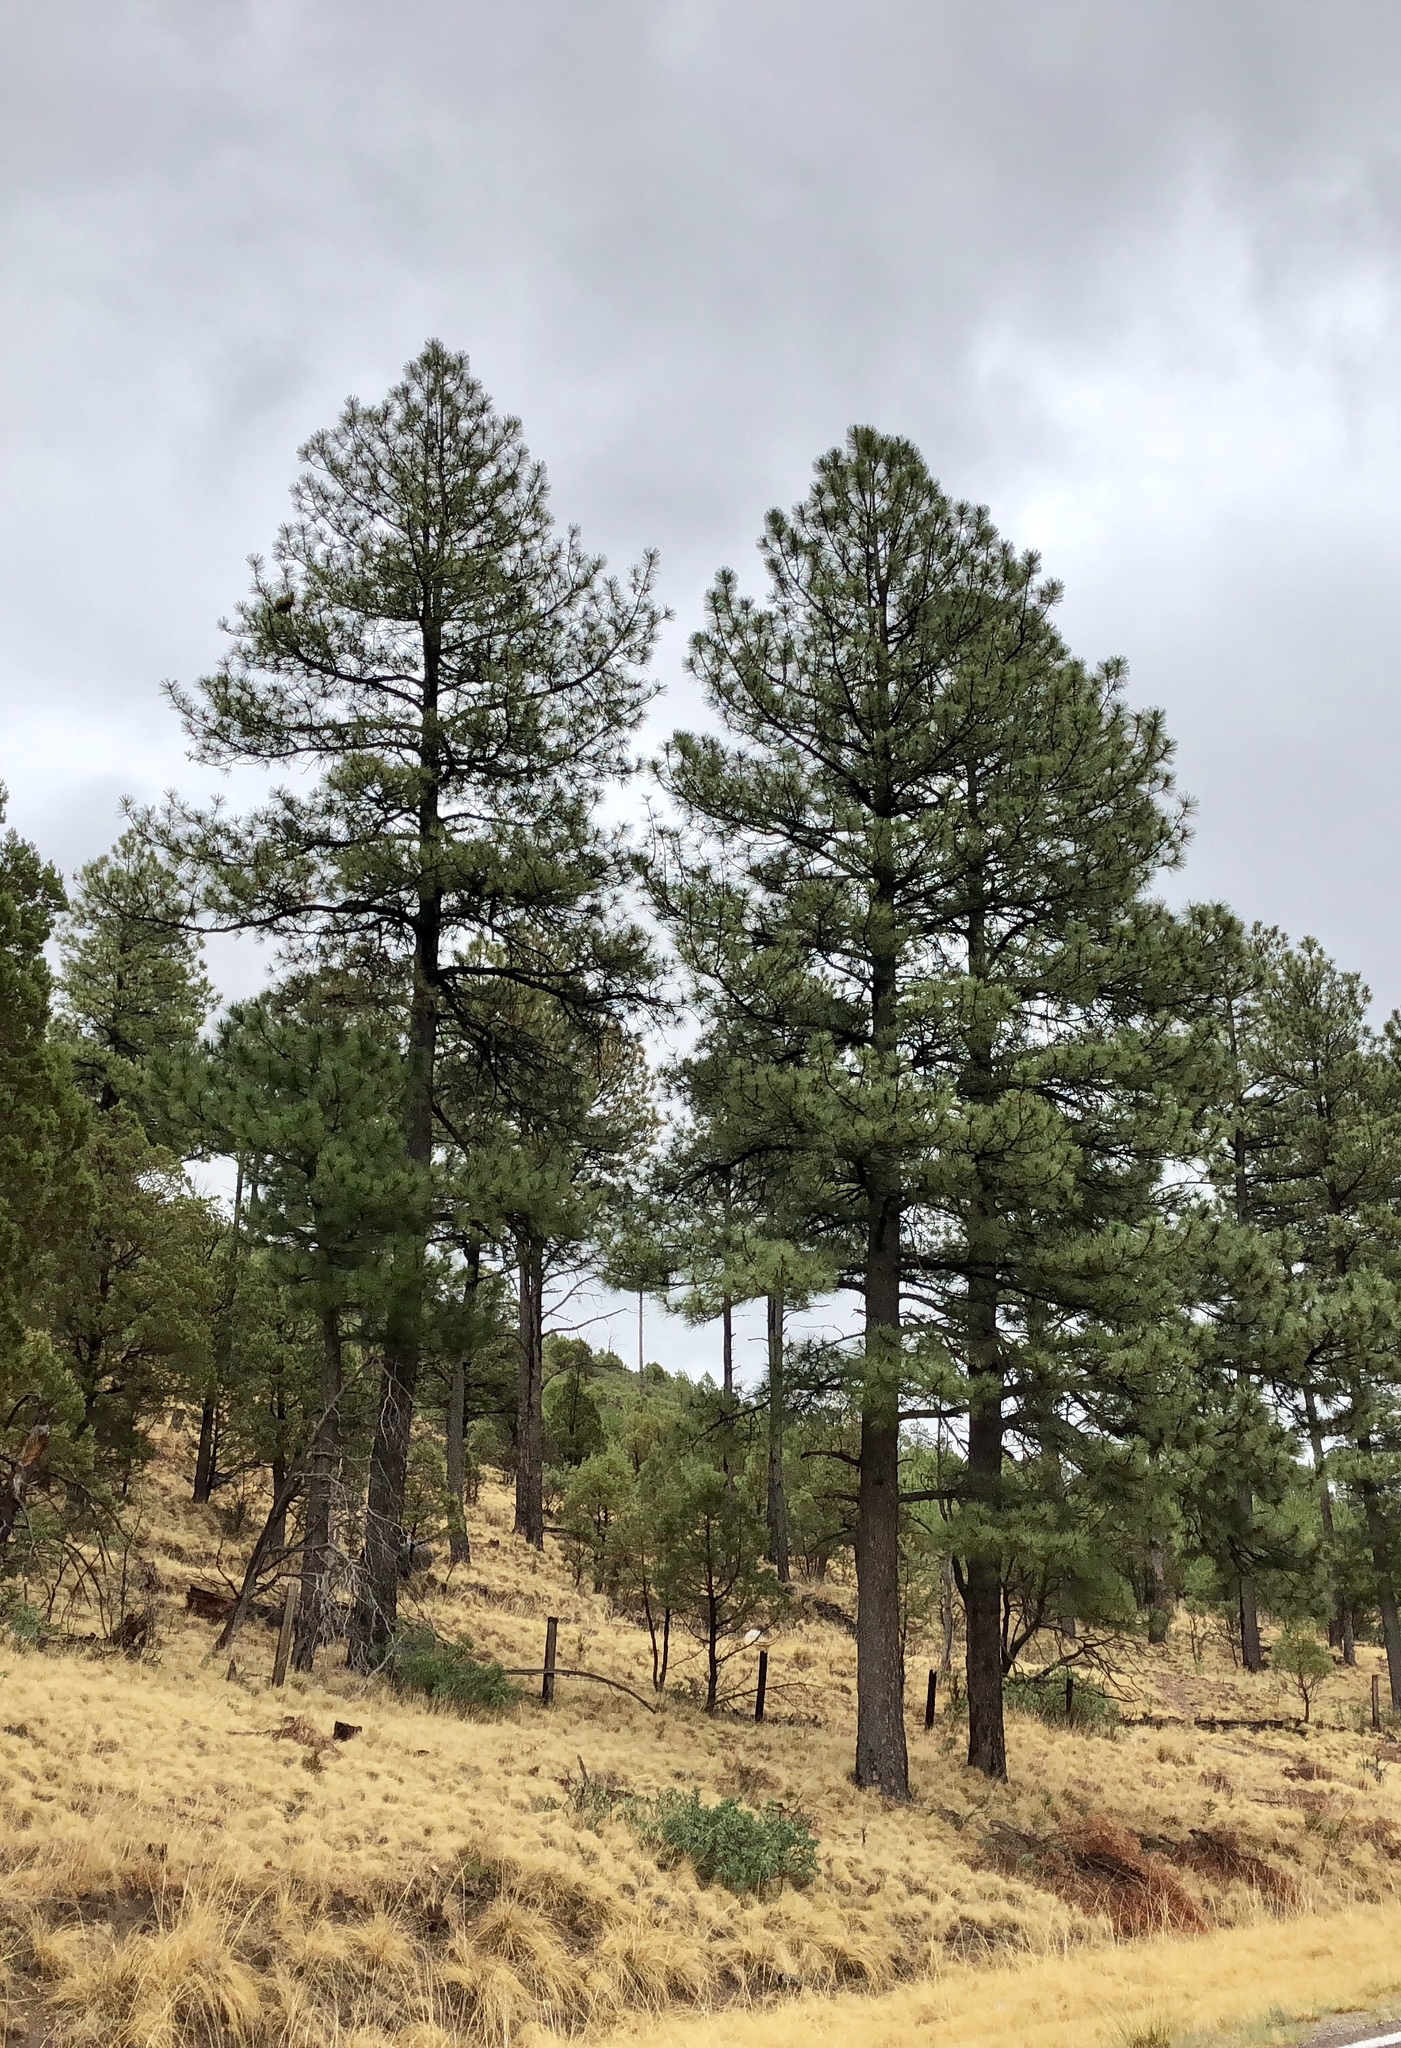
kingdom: Plantae
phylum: Tracheophyta
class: Pinopsida
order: Pinales
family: Pinaceae
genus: Pinus
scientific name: Pinus ponderosa
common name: Western yellow-pine
